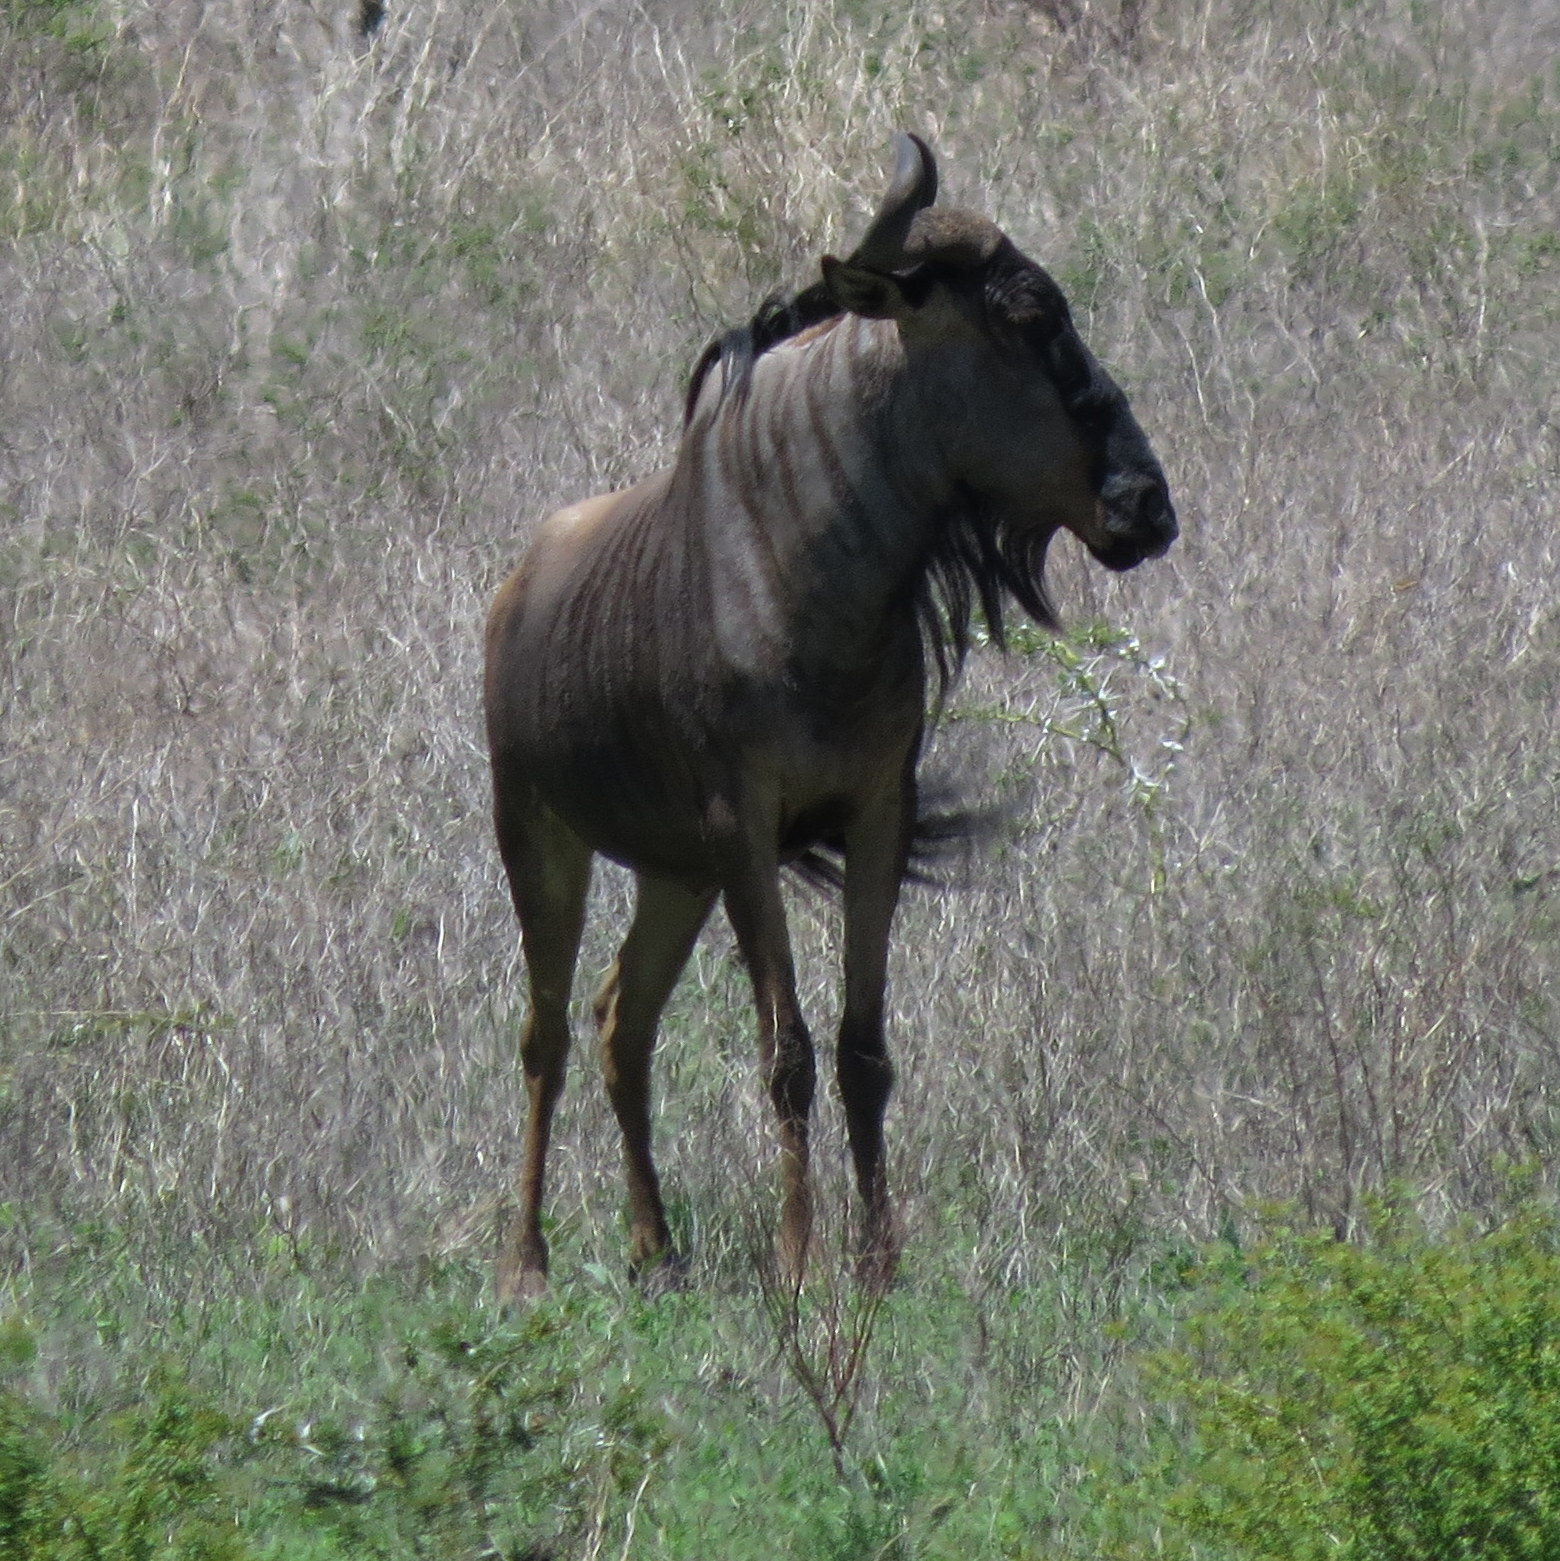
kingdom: Animalia
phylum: Chordata
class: Mammalia
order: Artiodactyla
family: Bovidae
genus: Connochaetes
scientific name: Connochaetes taurinus
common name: Blue wildebeest
